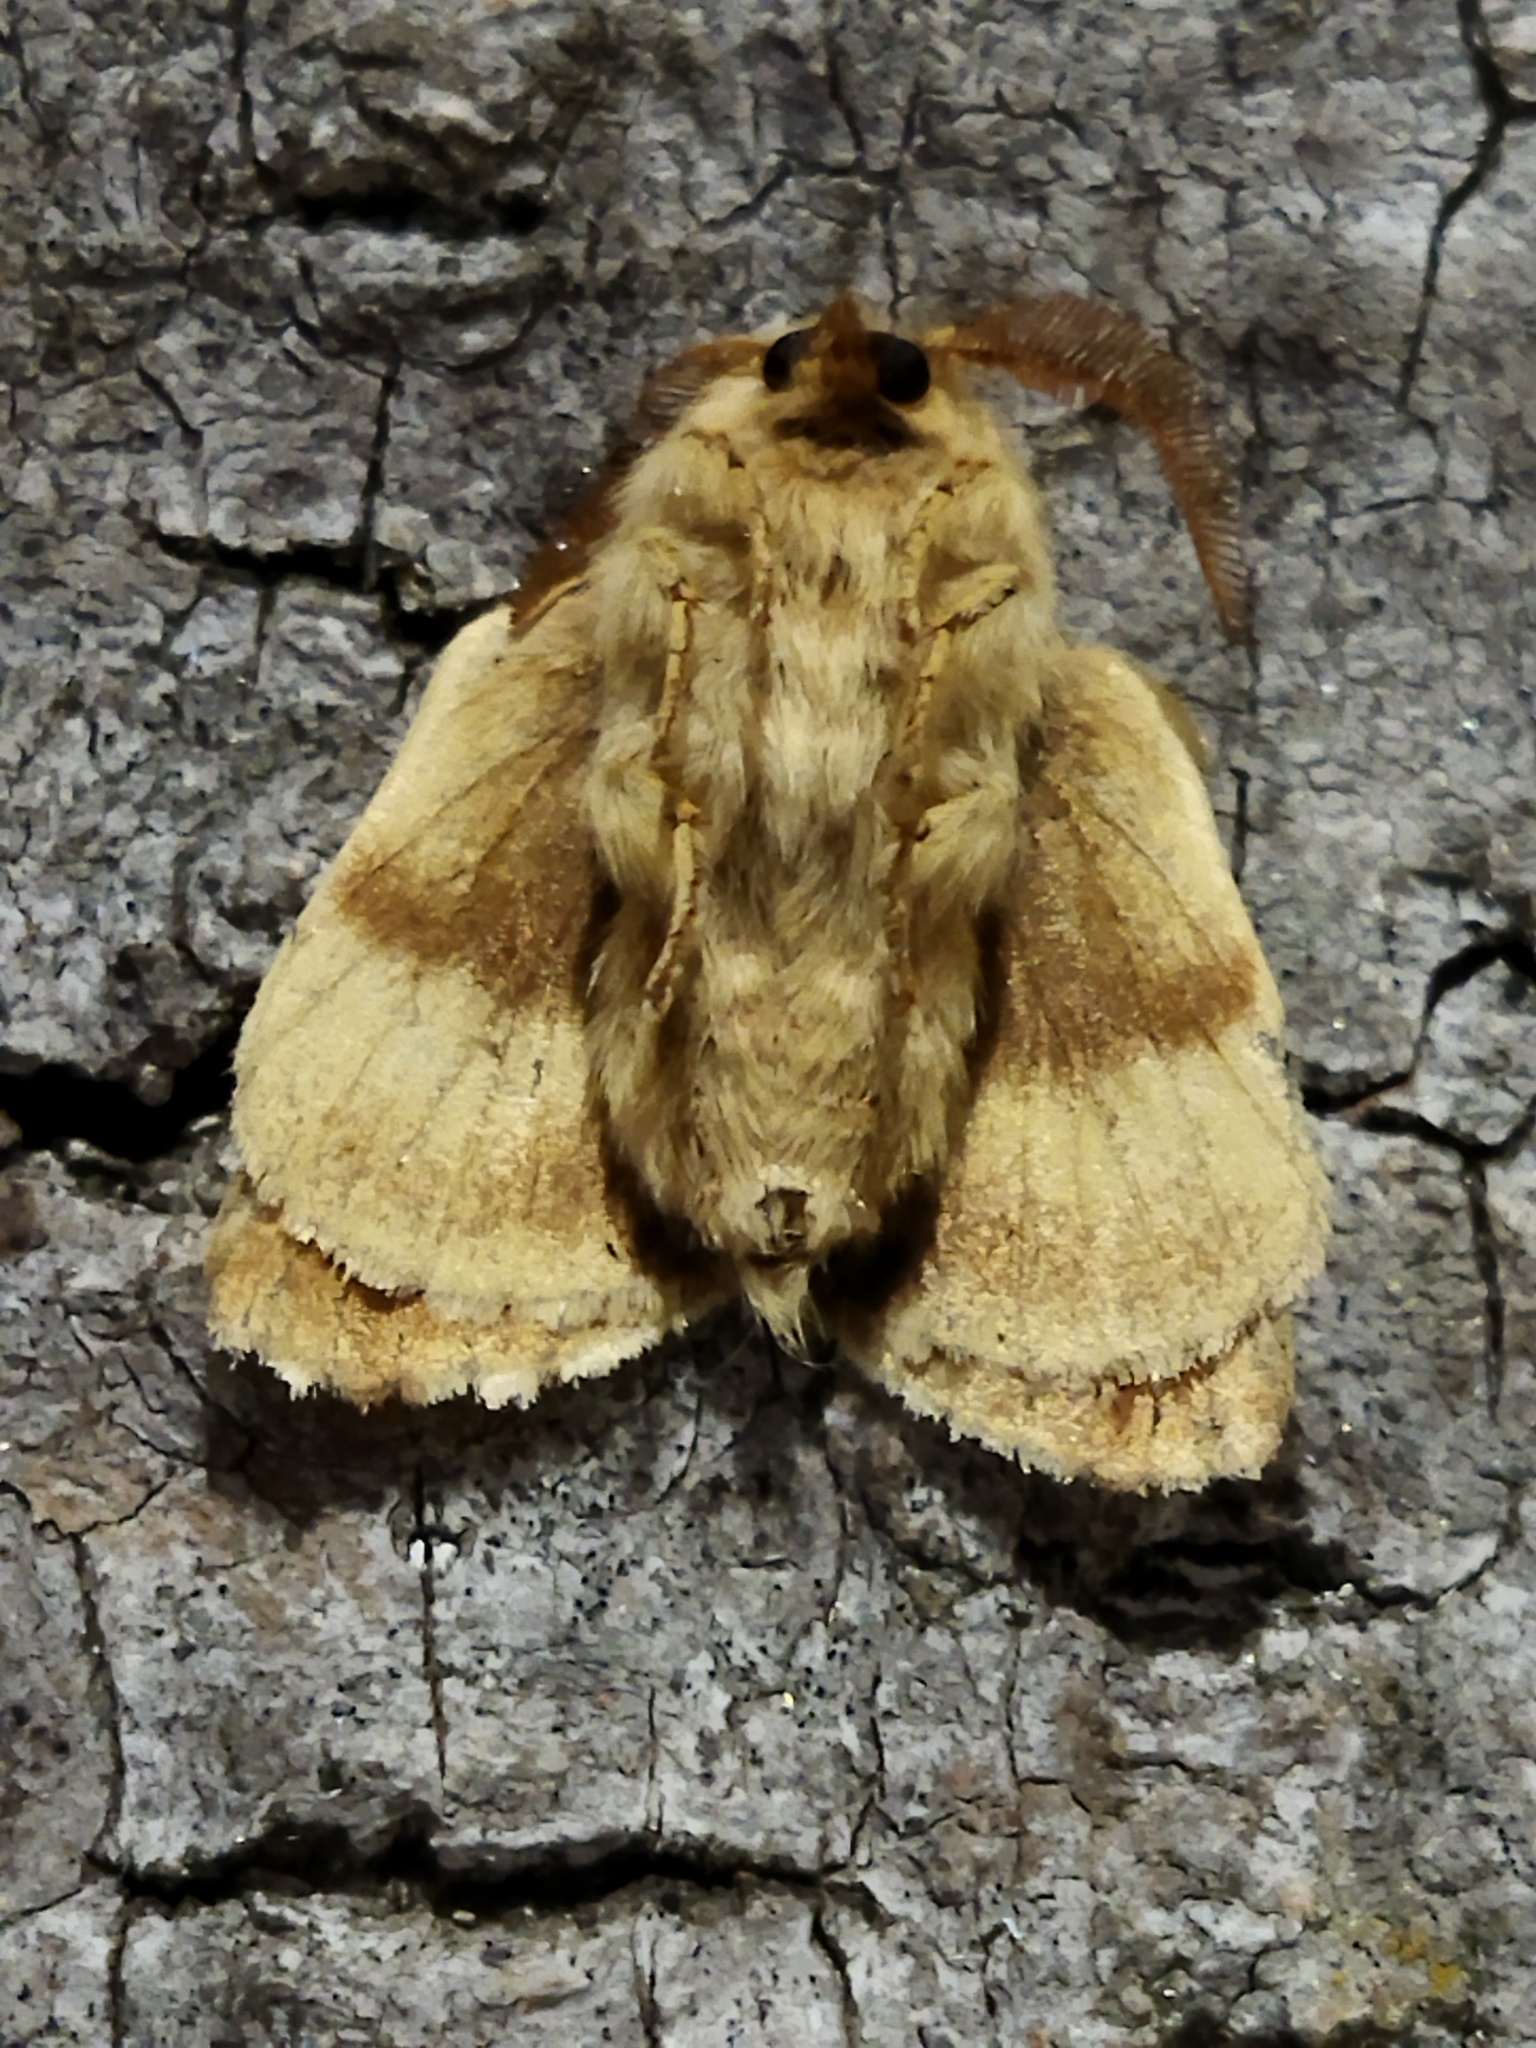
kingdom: Animalia
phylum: Arthropoda
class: Insecta
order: Lepidoptera
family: Lasiocampidae
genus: Malacosoma
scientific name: Malacosoma castrense
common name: Ground lackey
